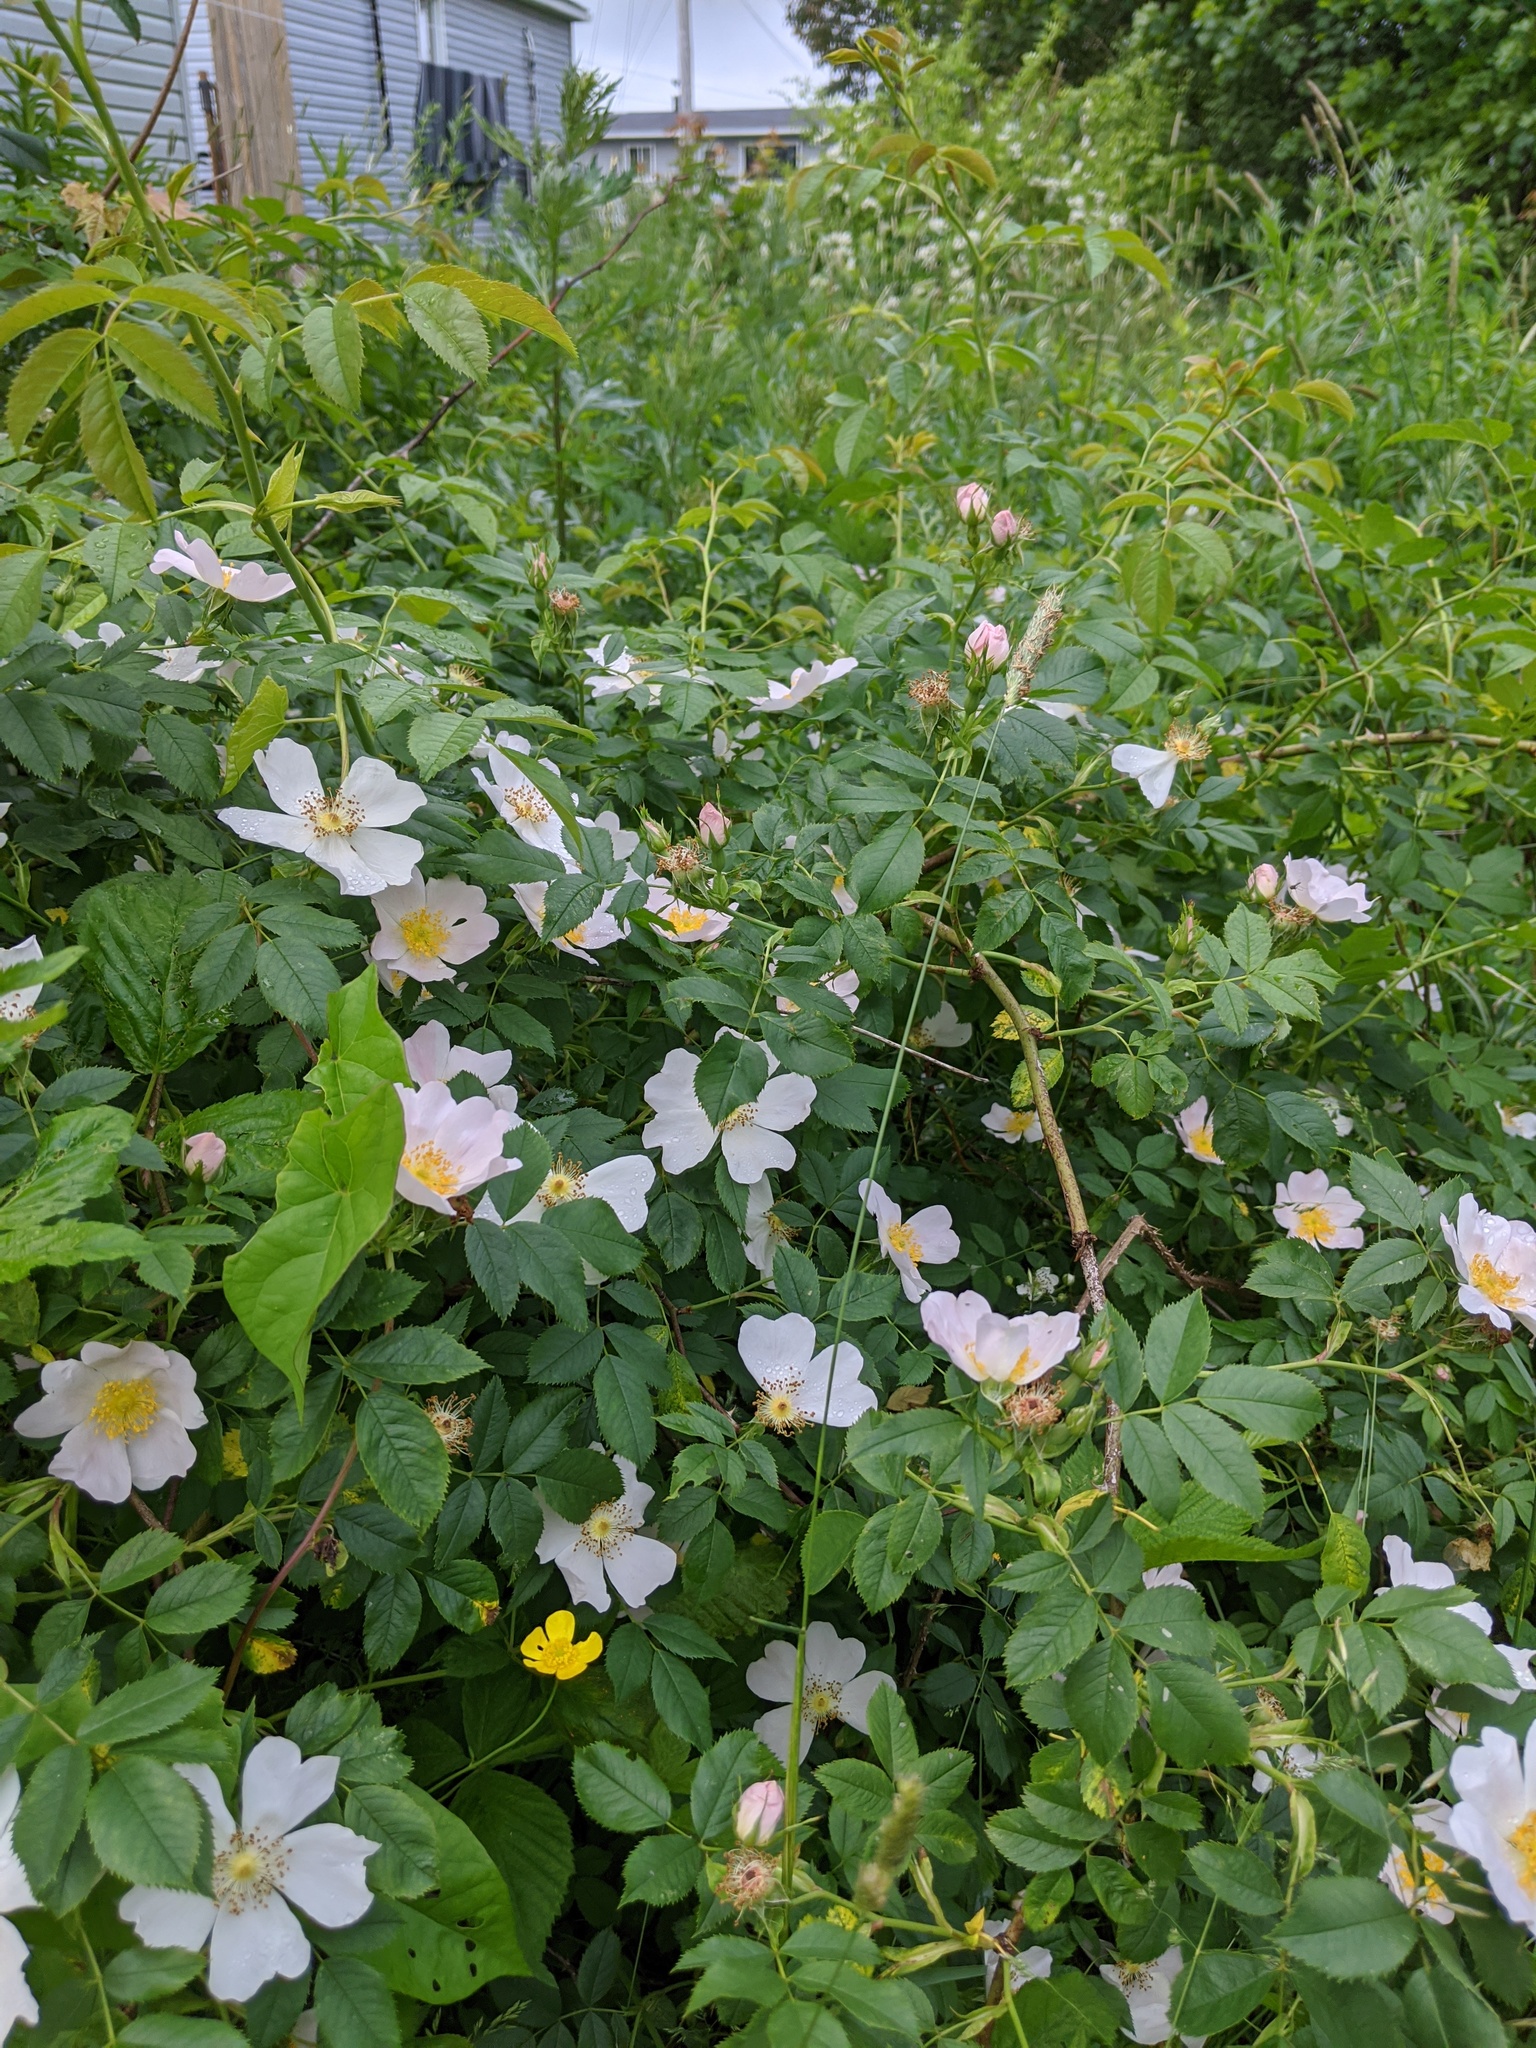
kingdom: Plantae
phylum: Tracheophyta
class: Magnoliopsida
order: Rosales
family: Rosaceae
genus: Rosa
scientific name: Rosa multiflora
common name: Multiflora rose
